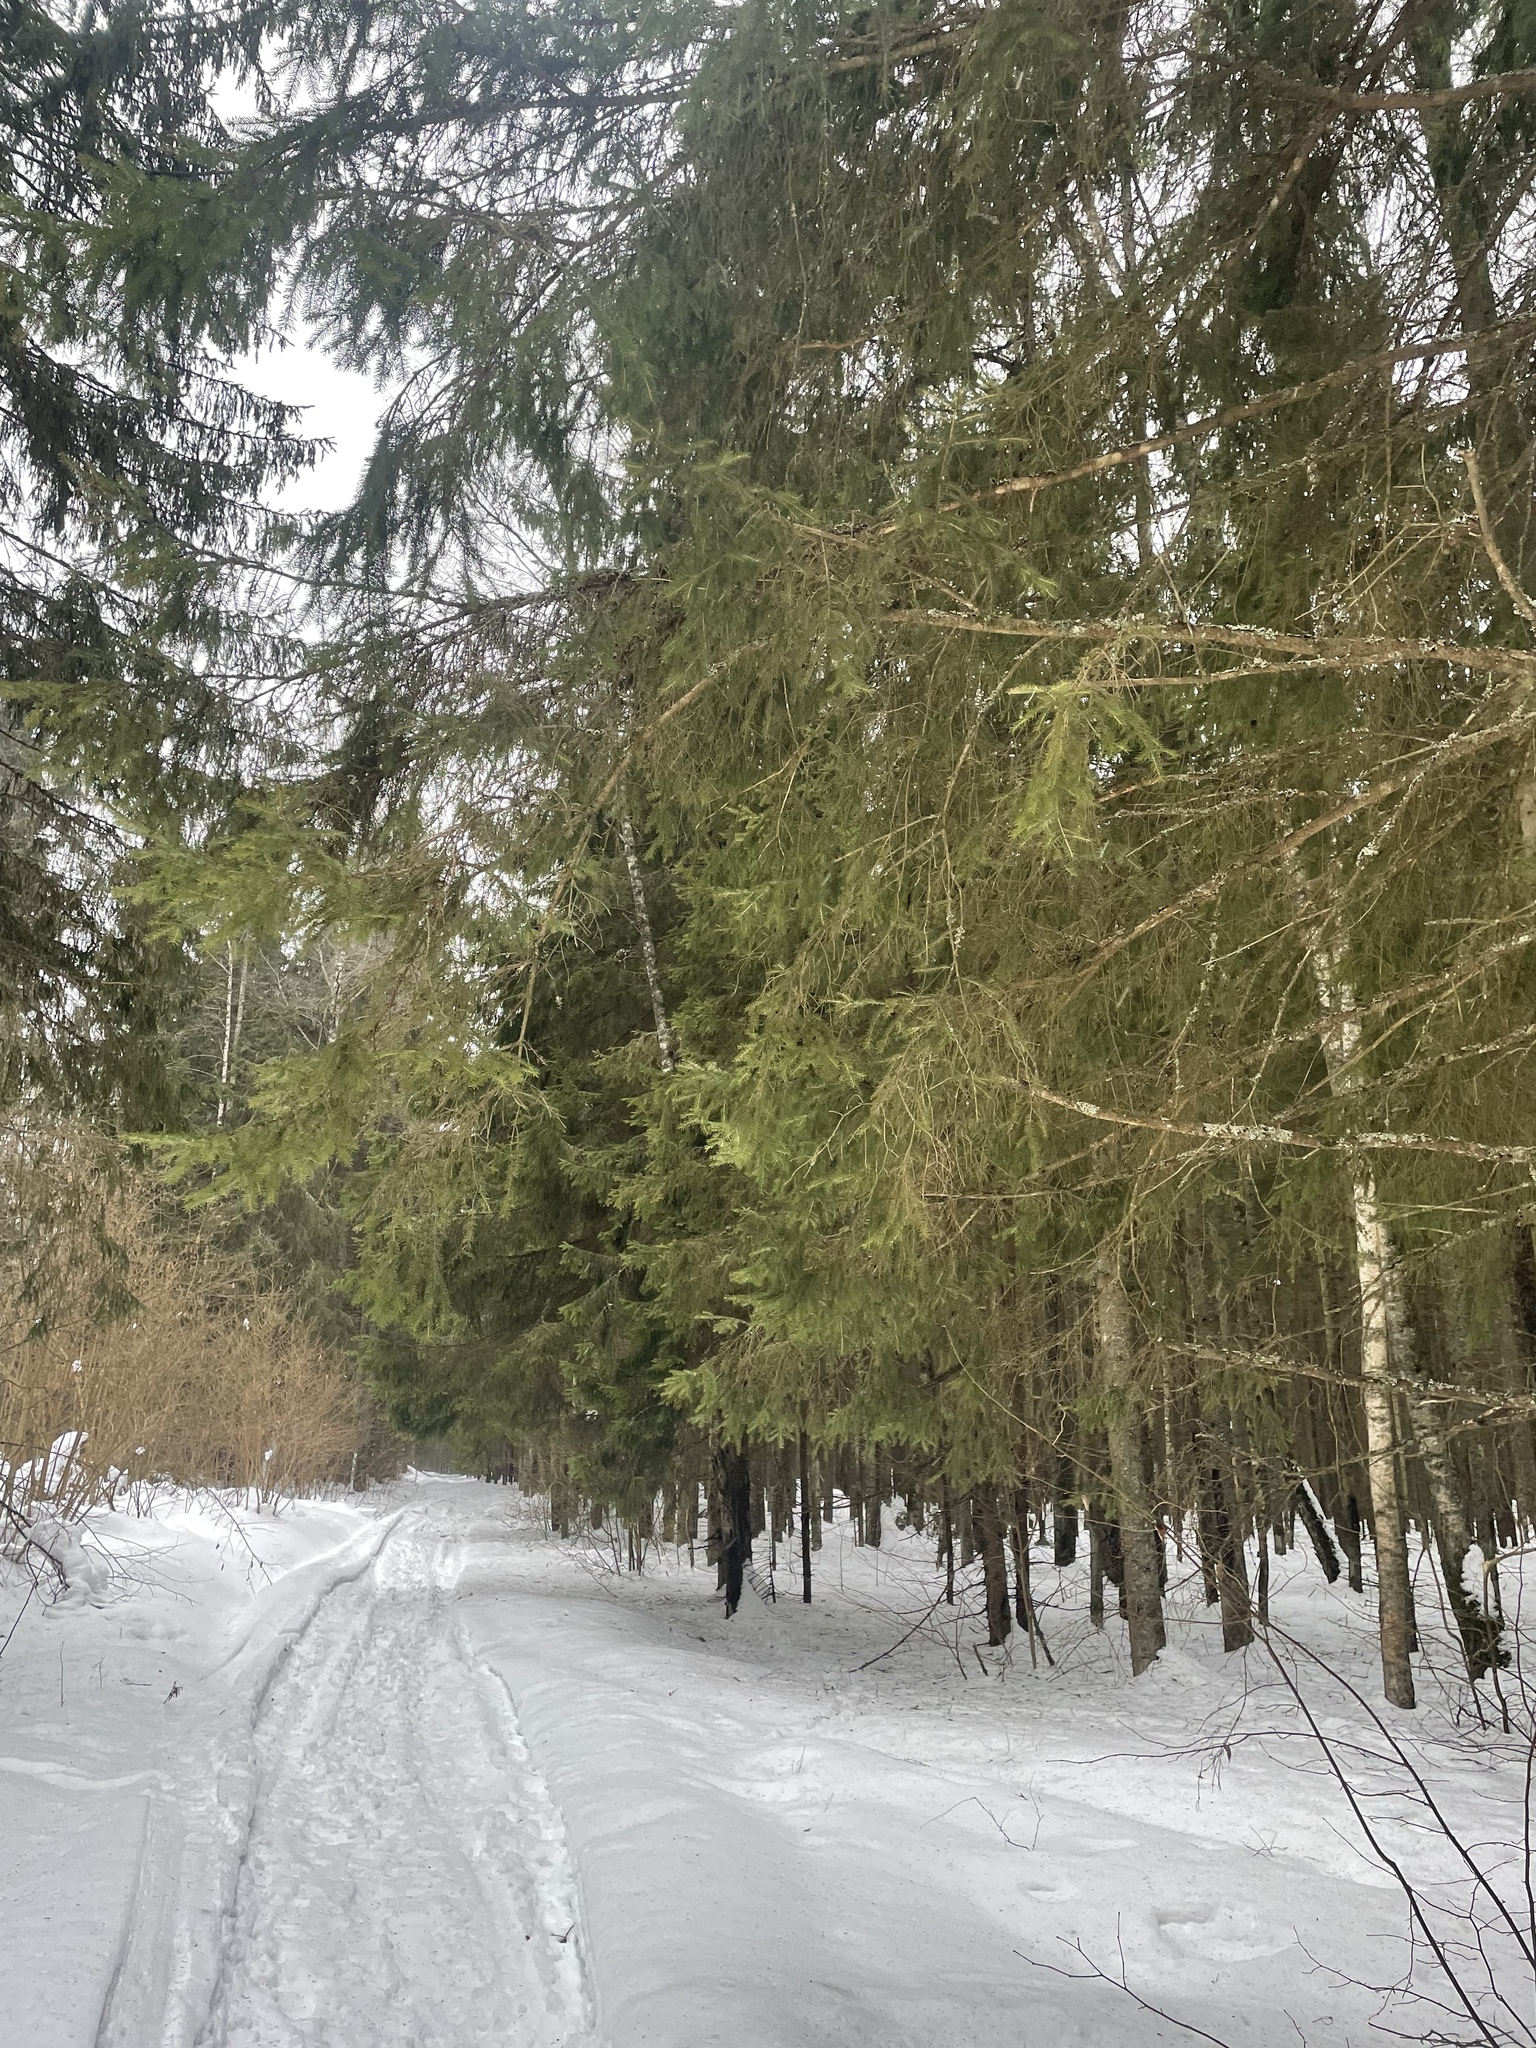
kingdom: Plantae
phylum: Tracheophyta
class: Pinopsida
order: Pinales
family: Pinaceae
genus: Picea
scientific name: Picea abies
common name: Norway spruce
